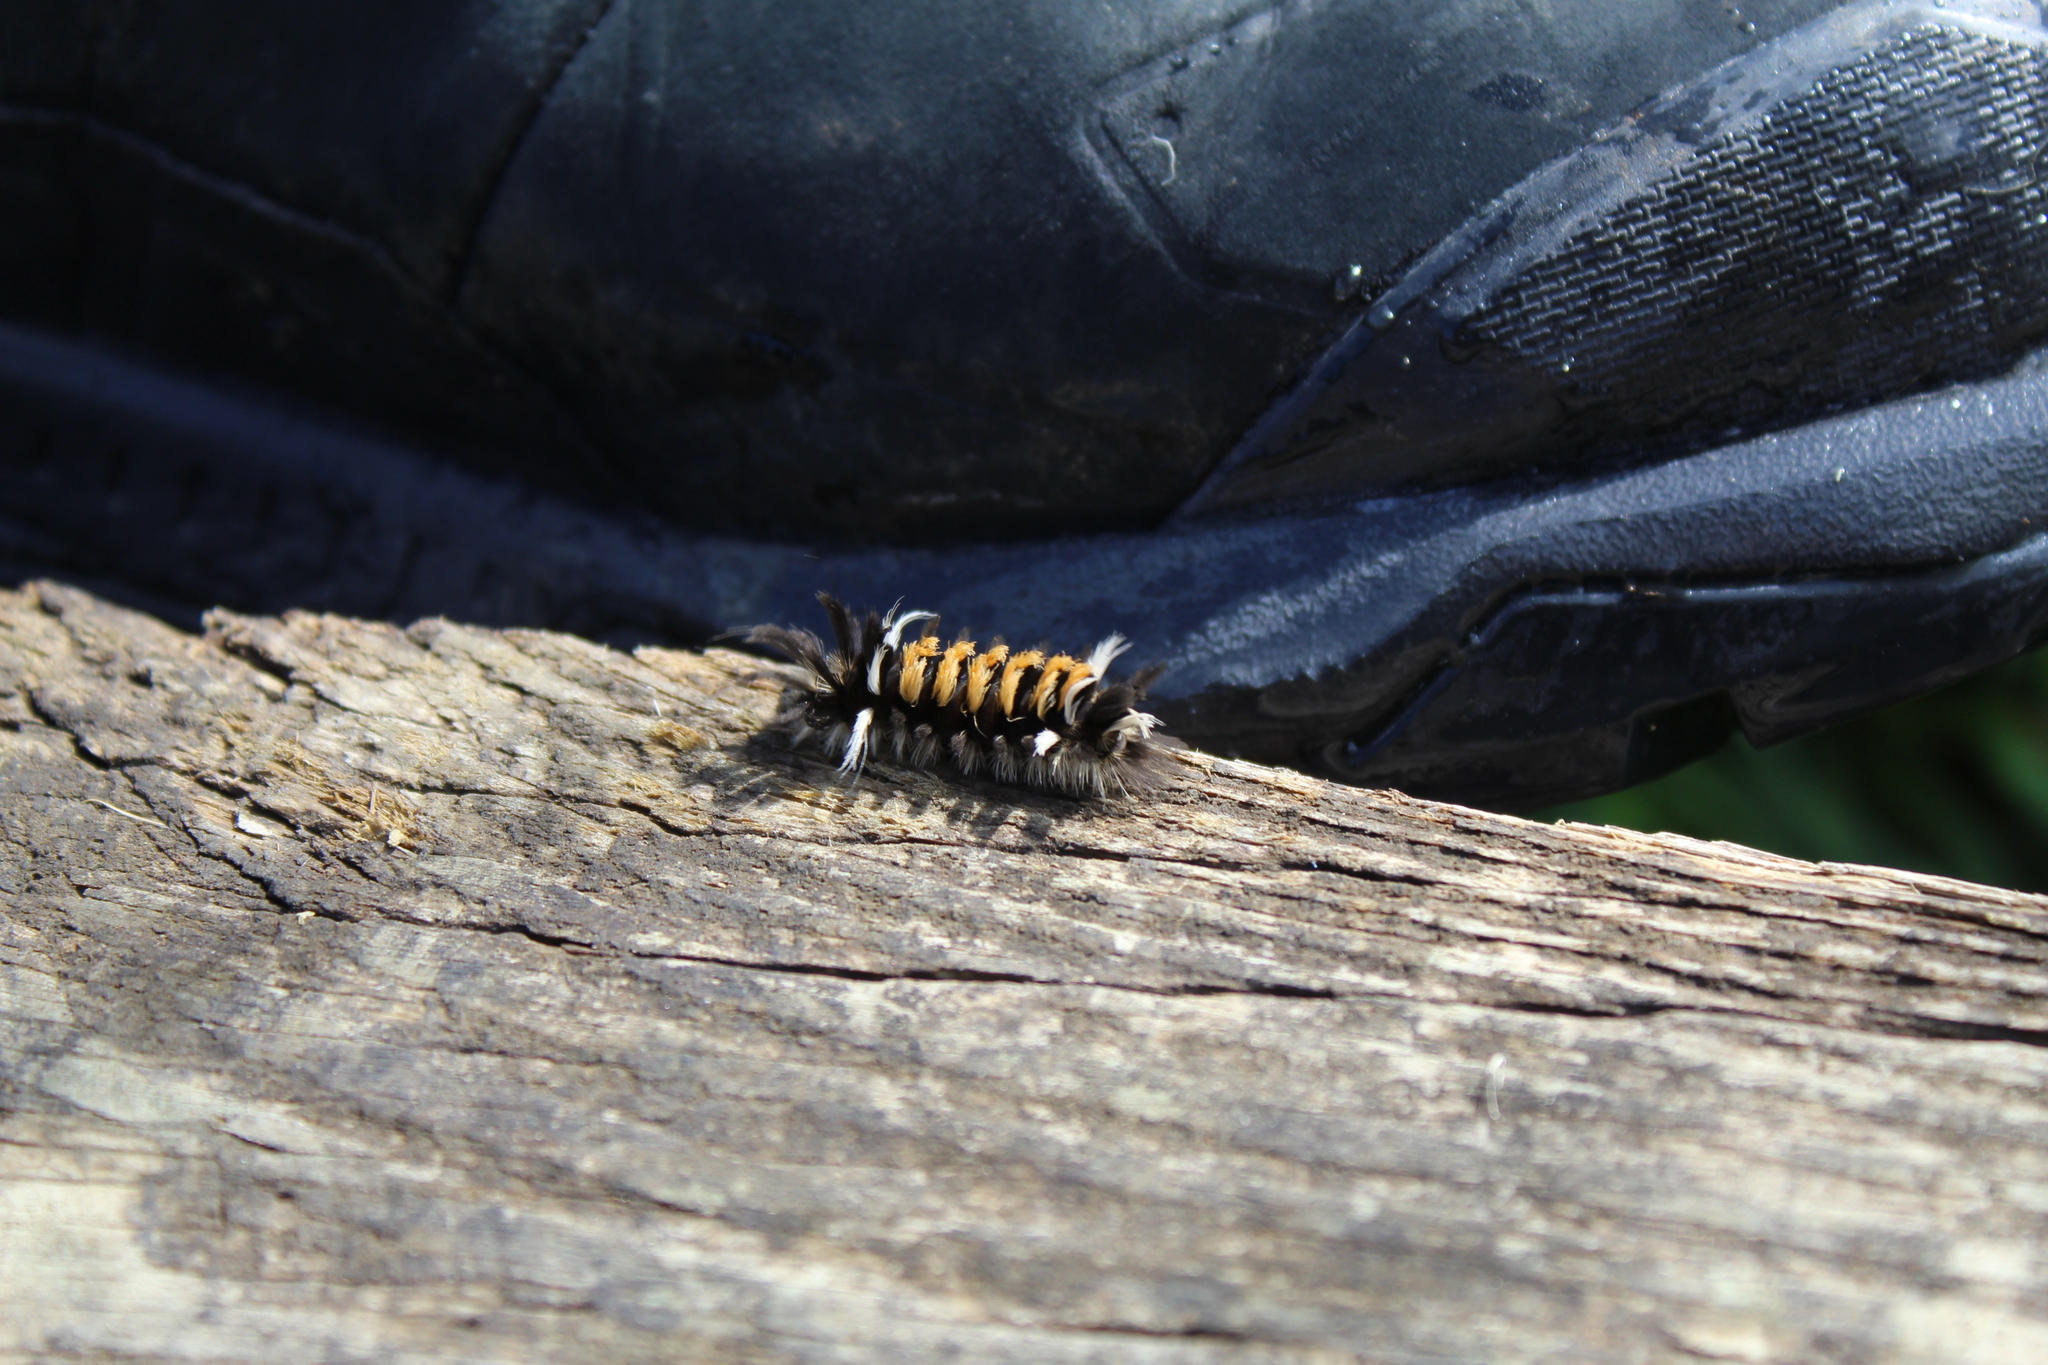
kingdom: Animalia
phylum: Arthropoda
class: Insecta
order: Lepidoptera
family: Erebidae
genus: Euchaetes
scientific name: Euchaetes egle
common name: Milkweed tussock moth
